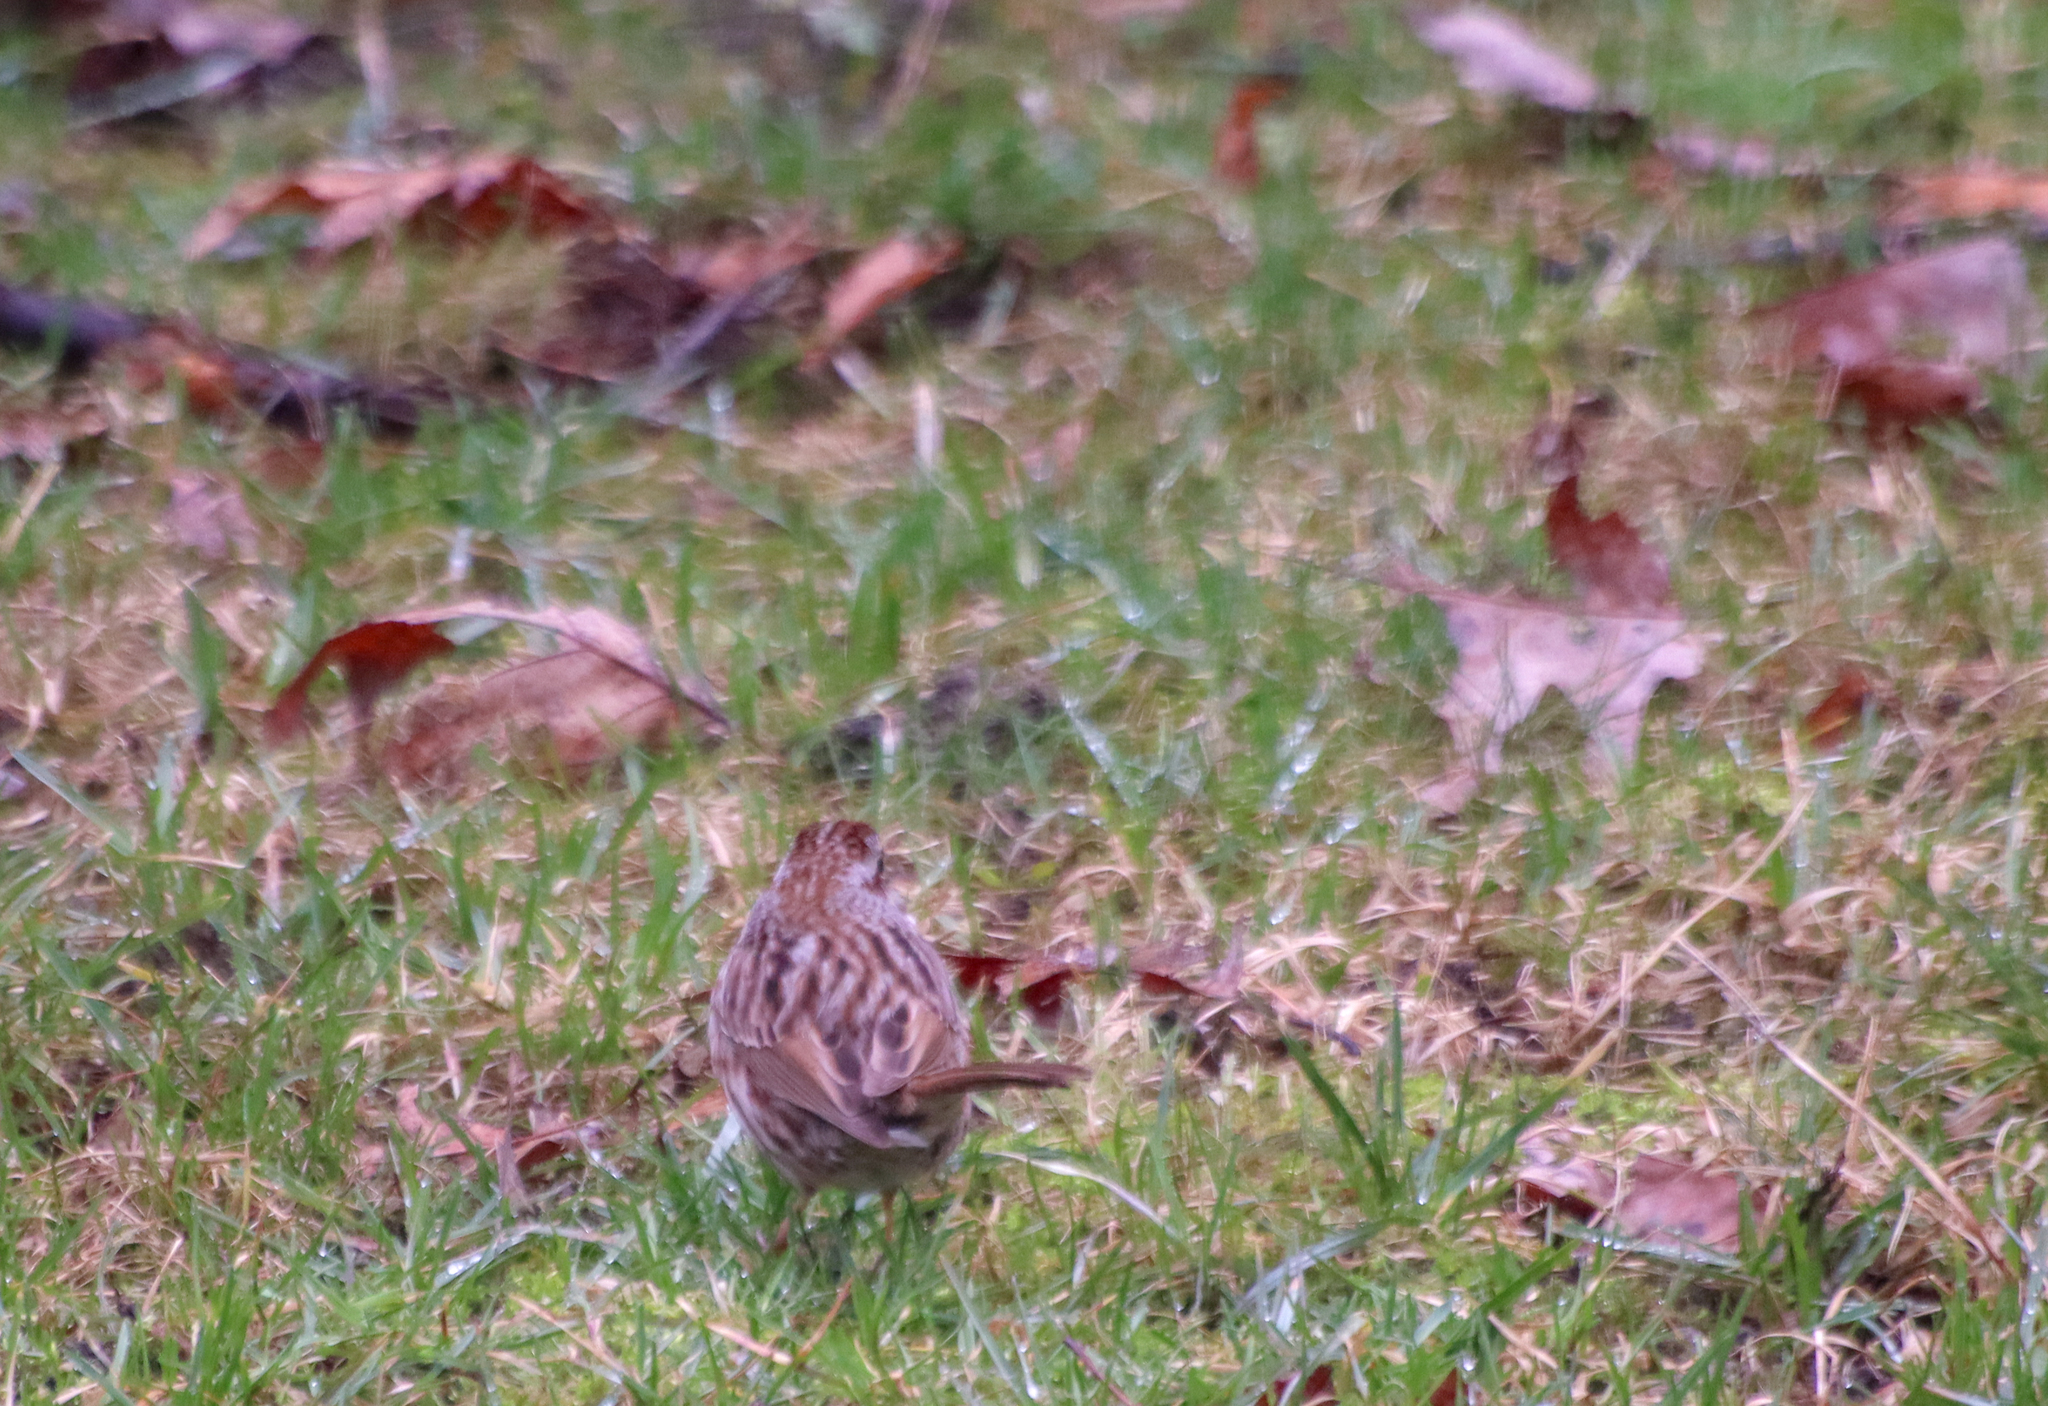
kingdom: Animalia
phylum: Chordata
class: Aves
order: Passeriformes
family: Passerellidae
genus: Melospiza
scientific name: Melospiza melodia
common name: Song sparrow
